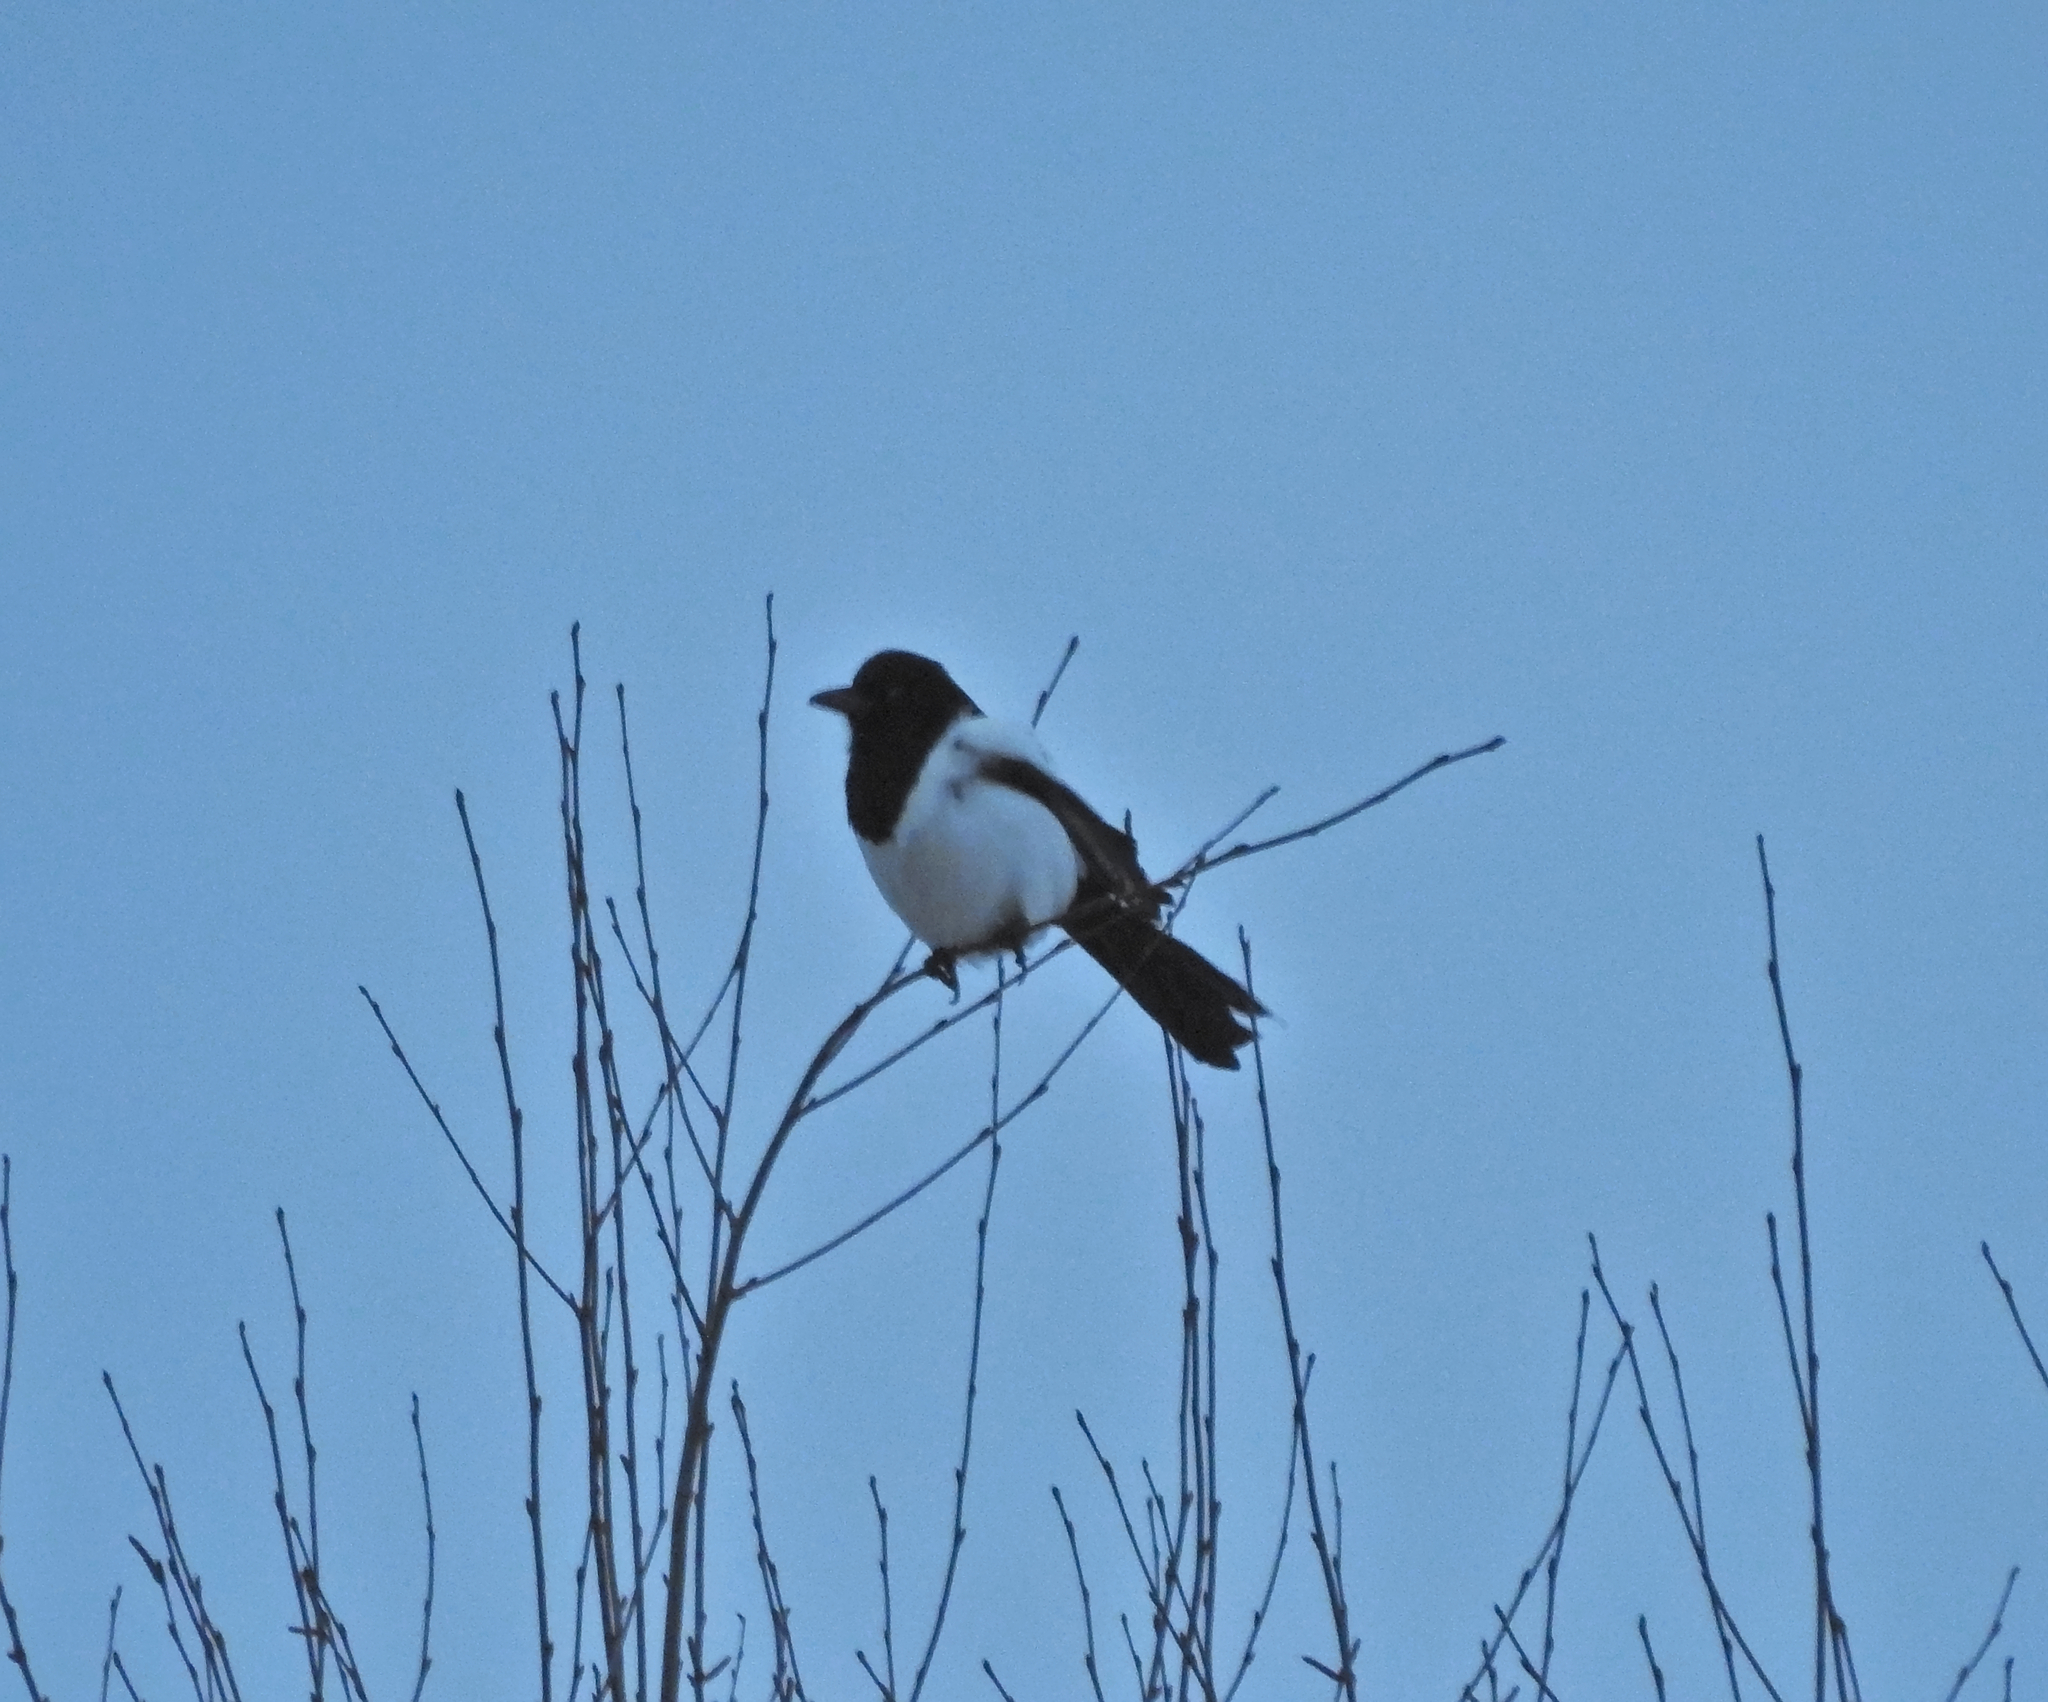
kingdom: Animalia
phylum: Chordata
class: Aves
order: Passeriformes
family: Corvidae
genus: Pica
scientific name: Pica pica
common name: Eurasian magpie
